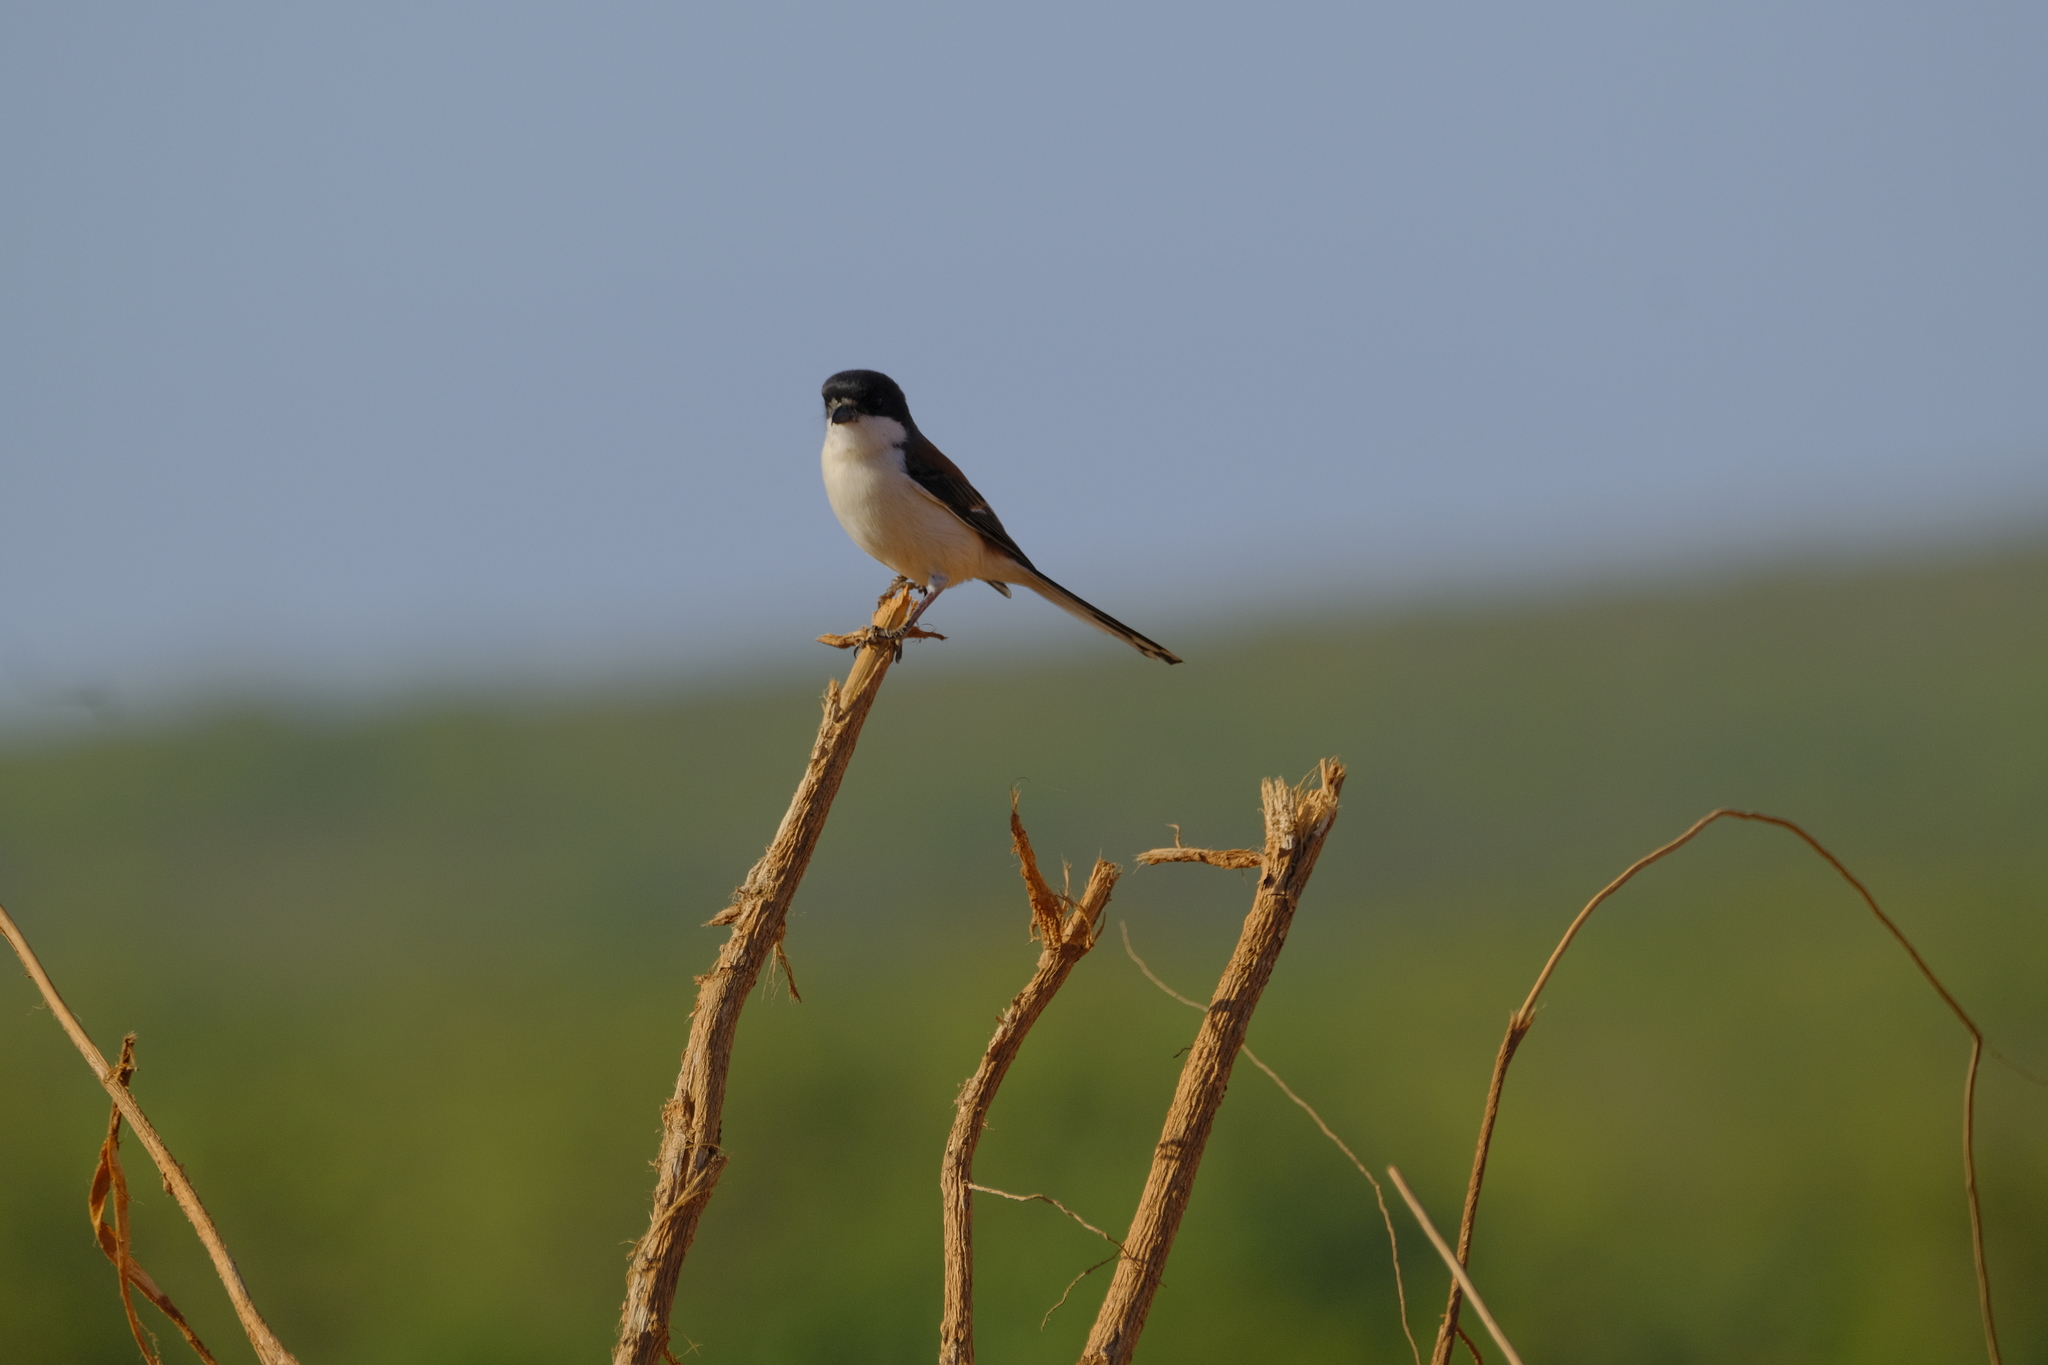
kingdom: Animalia
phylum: Chordata
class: Aves
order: Passeriformes
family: Laniidae
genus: Lanius
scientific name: Lanius collurioides
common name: Burmese shrike
